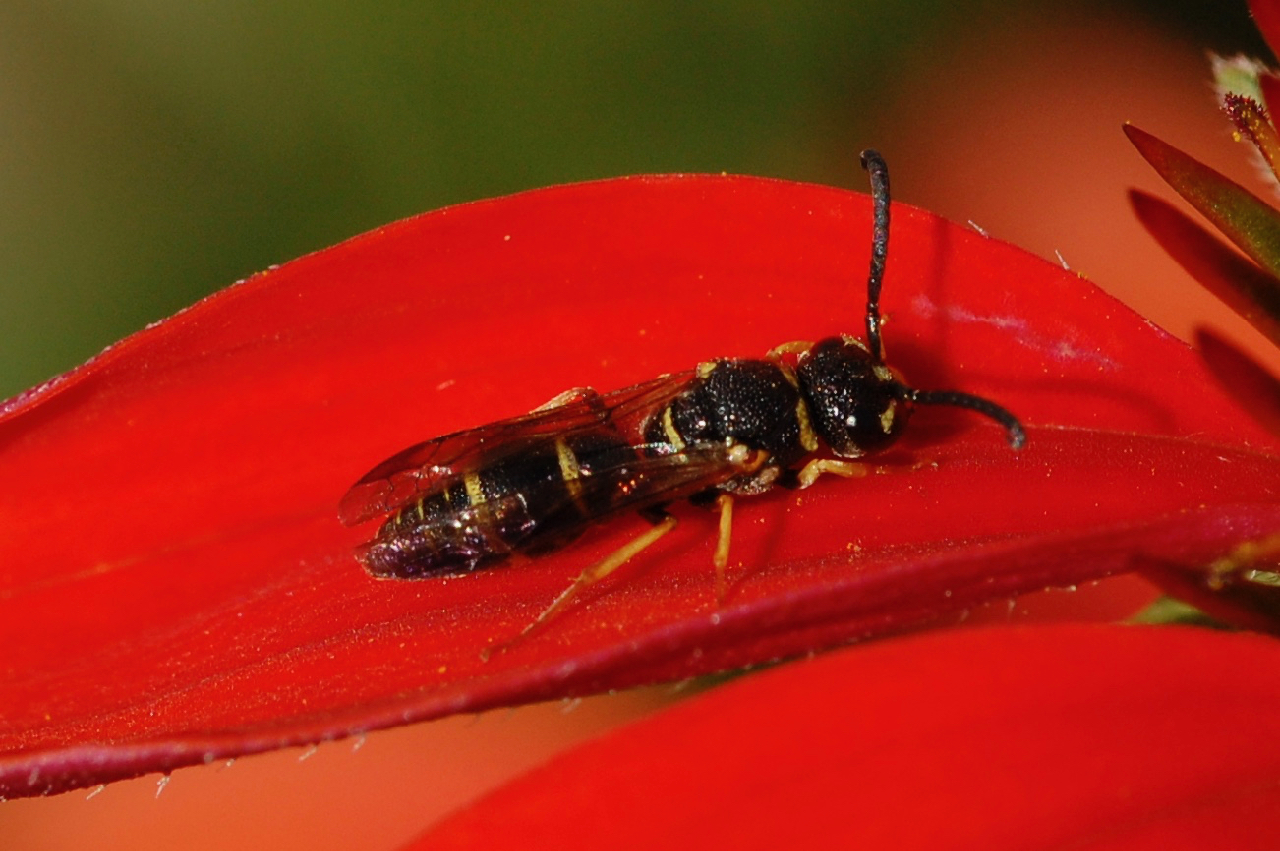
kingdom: Animalia
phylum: Arthropoda
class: Insecta
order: Hymenoptera
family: Eumenidae
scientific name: Eumenidae
